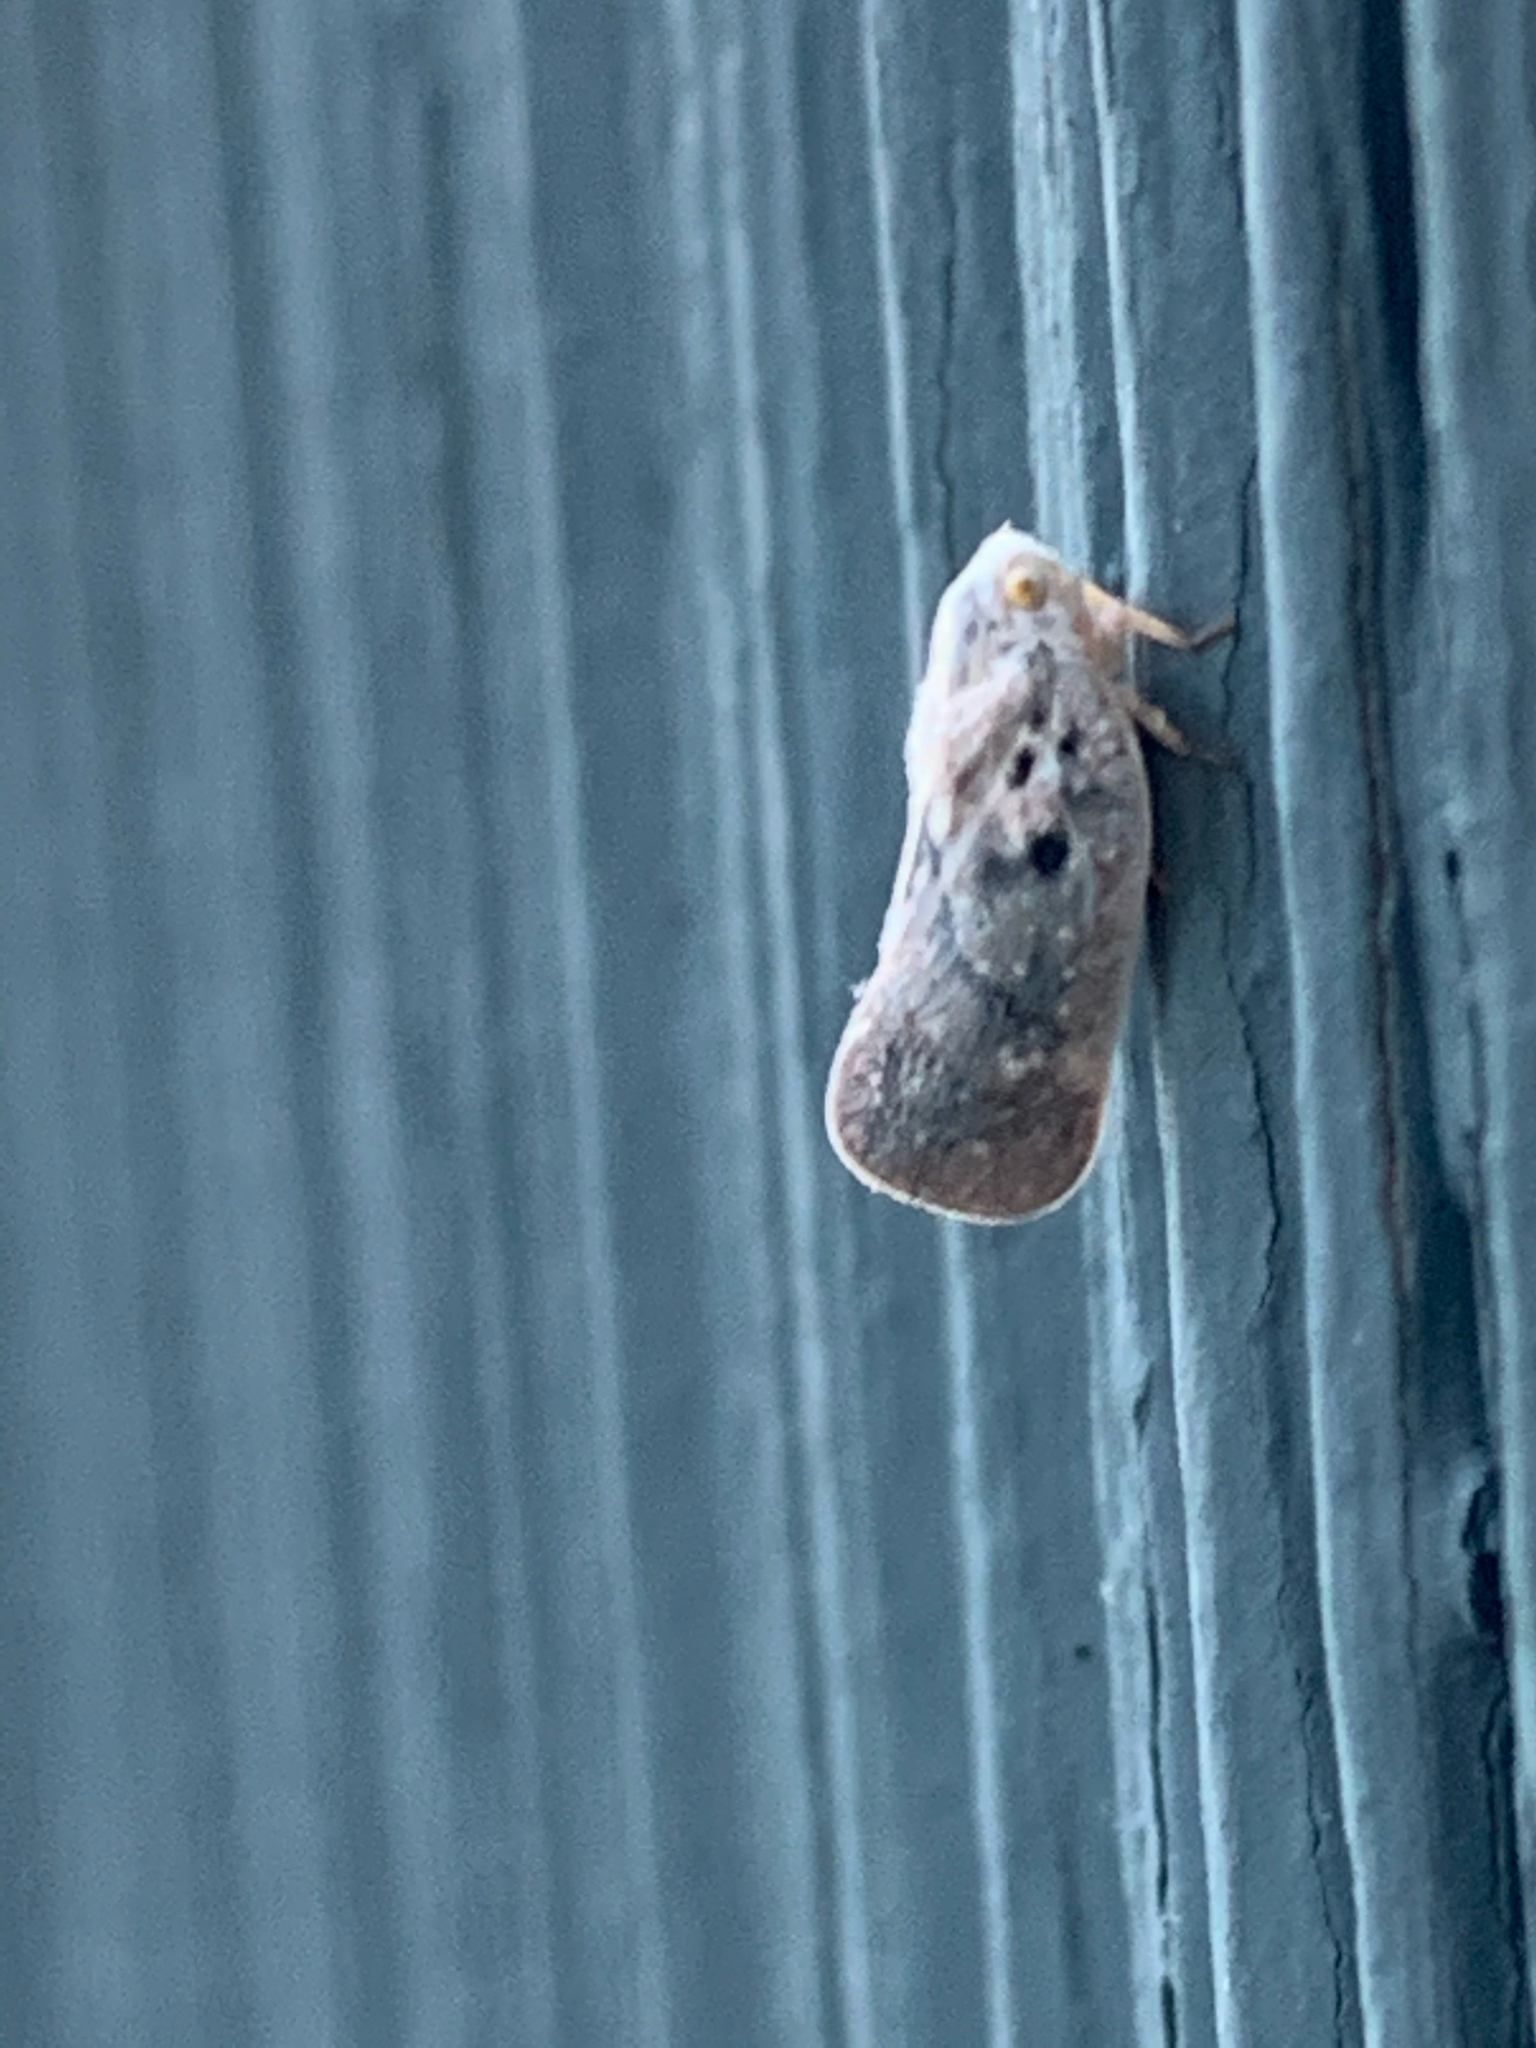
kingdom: Animalia
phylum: Arthropoda
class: Insecta
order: Hemiptera
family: Flatidae
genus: Metcalfa
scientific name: Metcalfa pruinosa
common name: Citrus flatid planthopper
